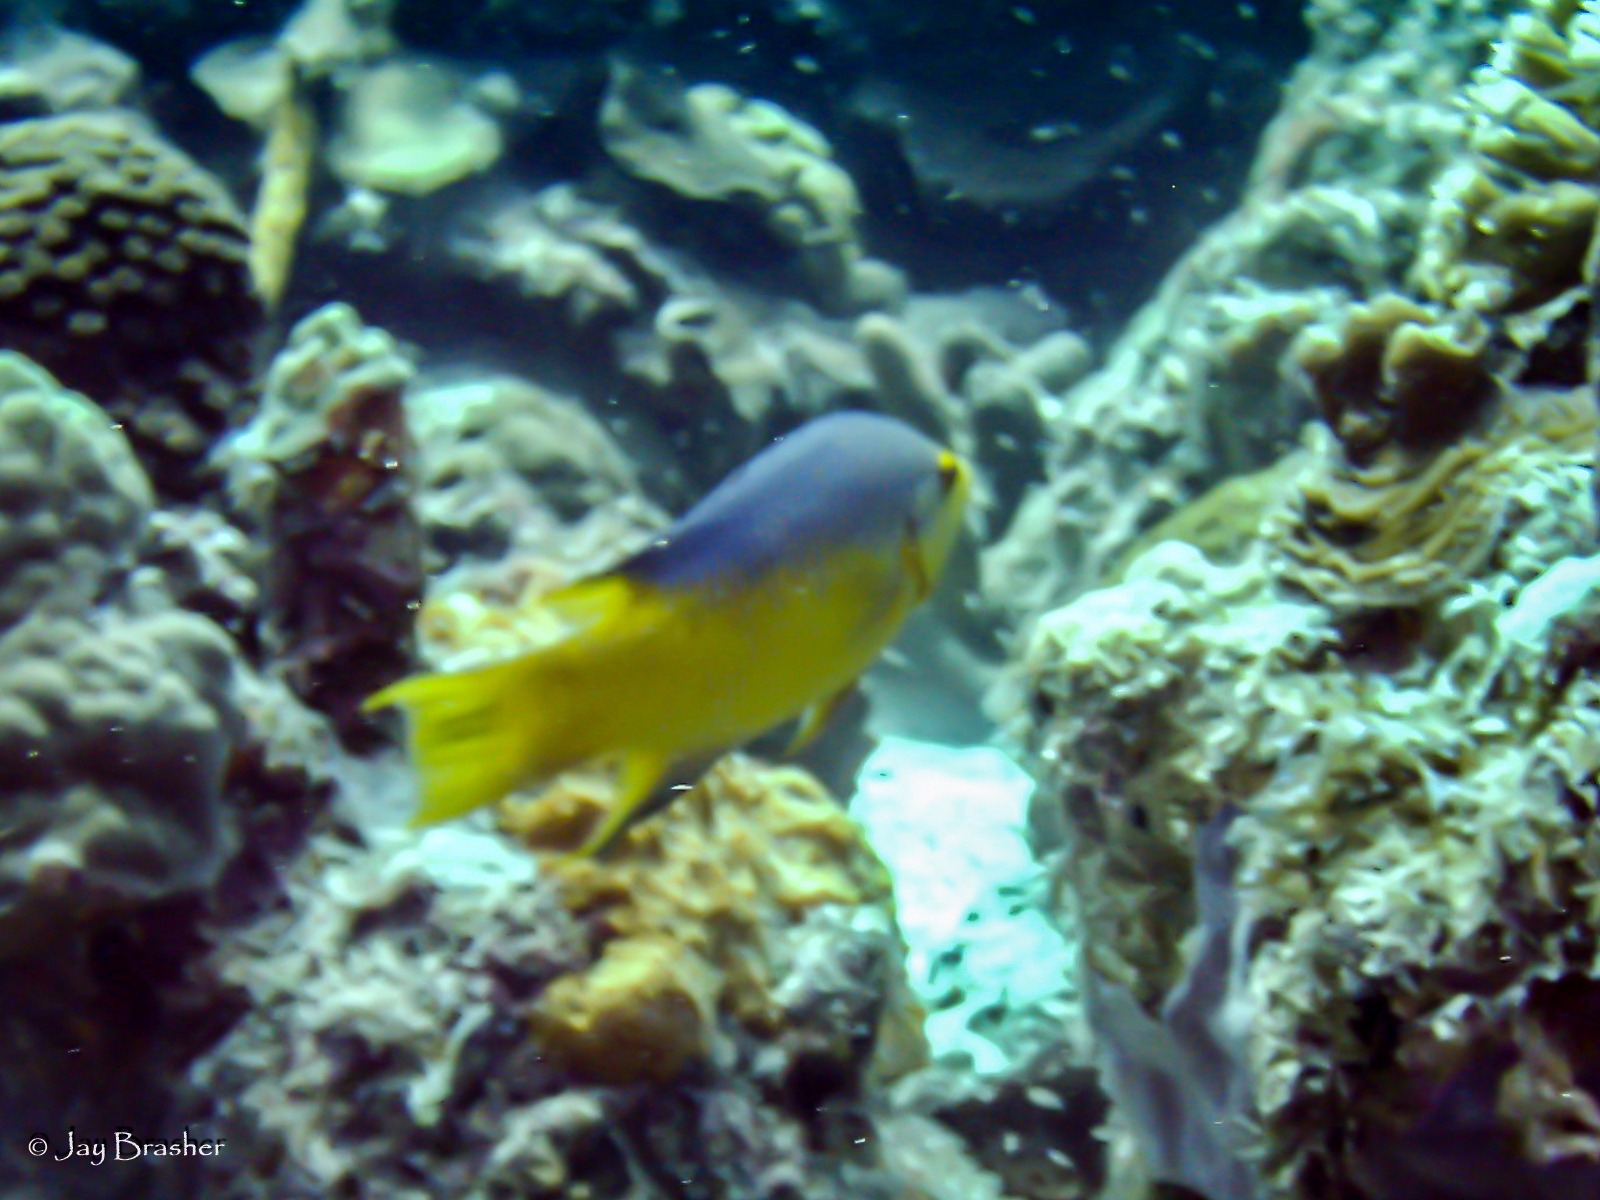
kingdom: Animalia
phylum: Chordata
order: Perciformes
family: Labridae
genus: Bodianus
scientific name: Bodianus rufus
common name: Spanish hogfish
